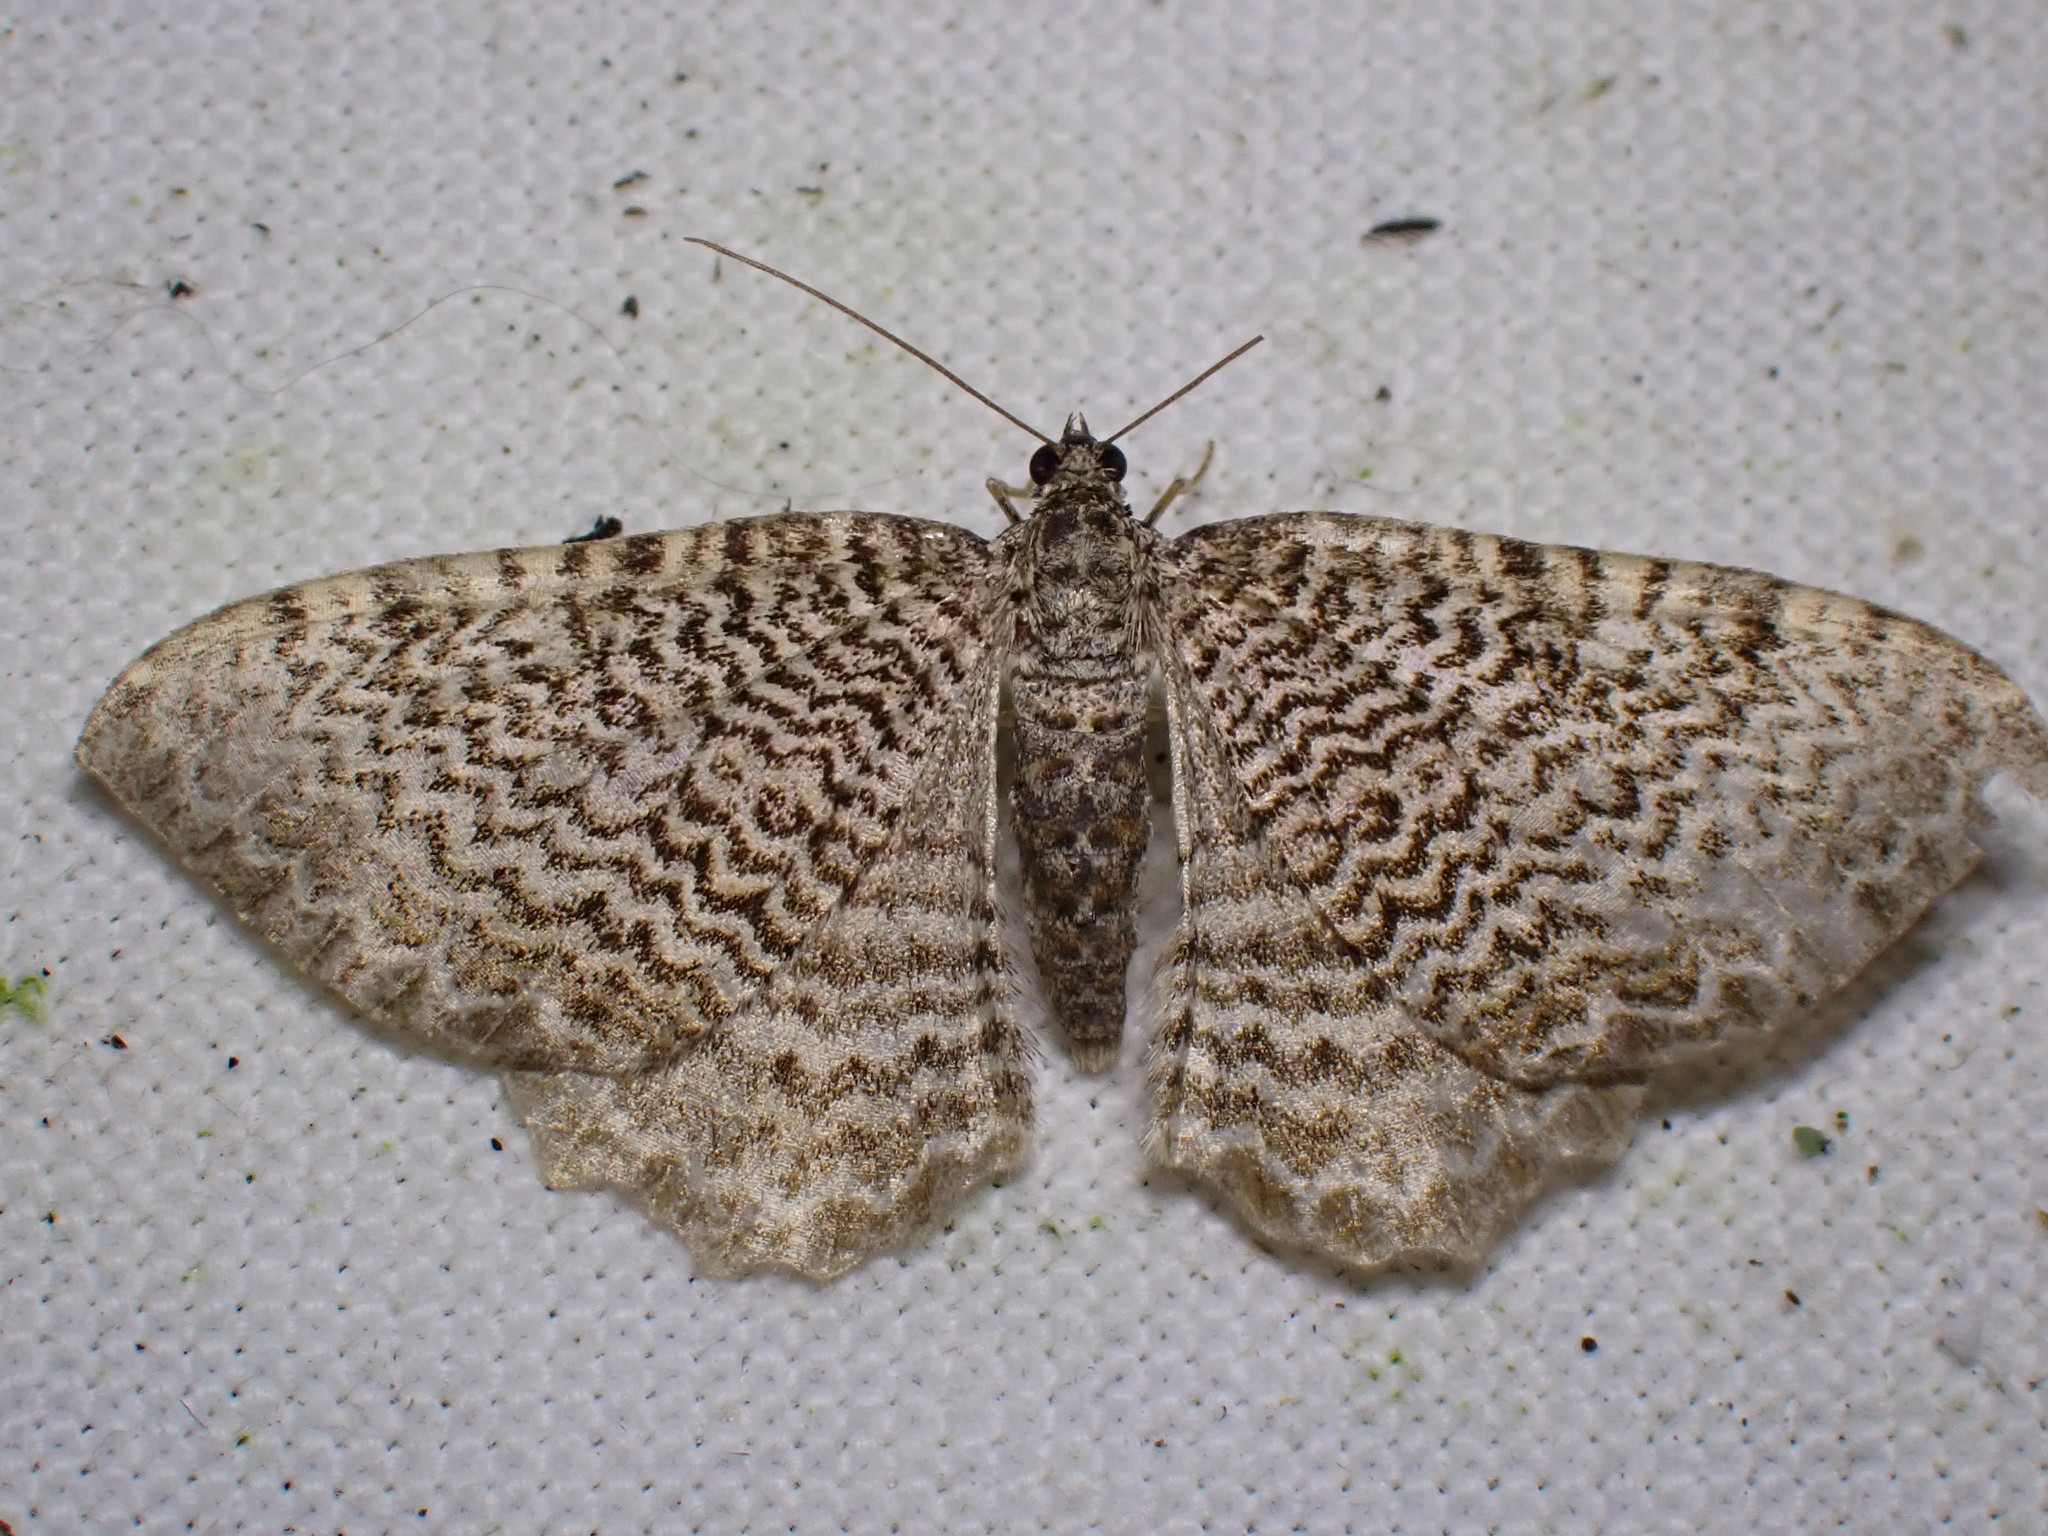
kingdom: Animalia
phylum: Arthropoda
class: Insecta
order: Lepidoptera
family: Geometridae
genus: Rheumaptera
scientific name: Rheumaptera undulata
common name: Scallop shell
